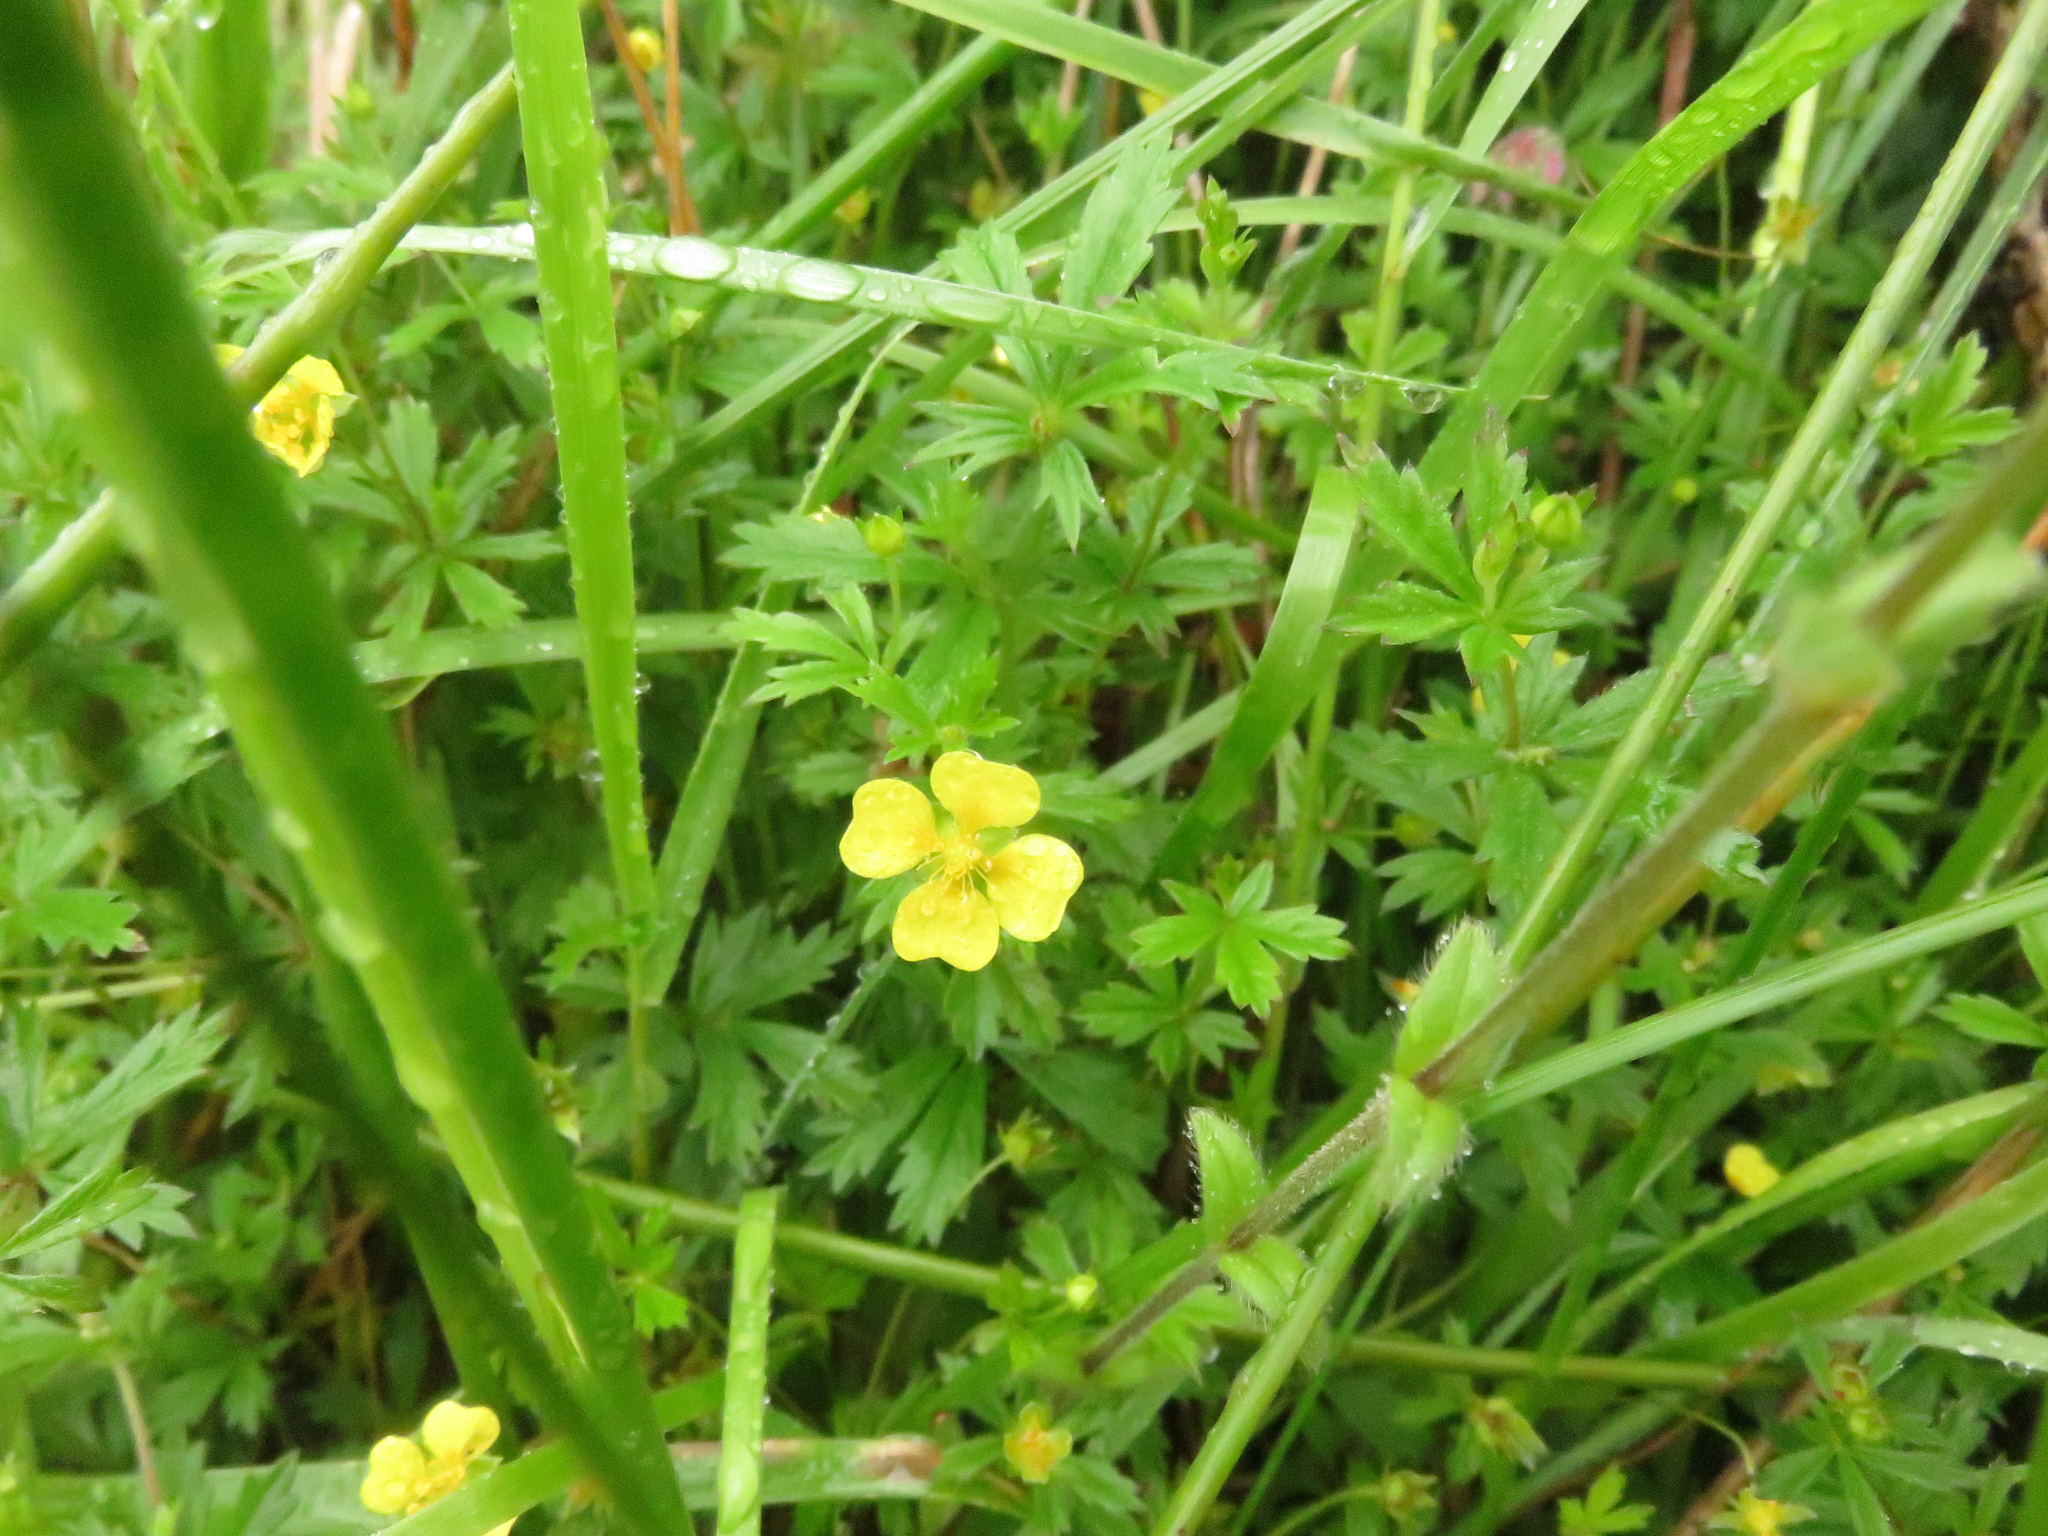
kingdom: Plantae
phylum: Tracheophyta
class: Magnoliopsida
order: Rosales
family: Rosaceae
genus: Potentilla
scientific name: Potentilla erecta
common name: Tormentil
